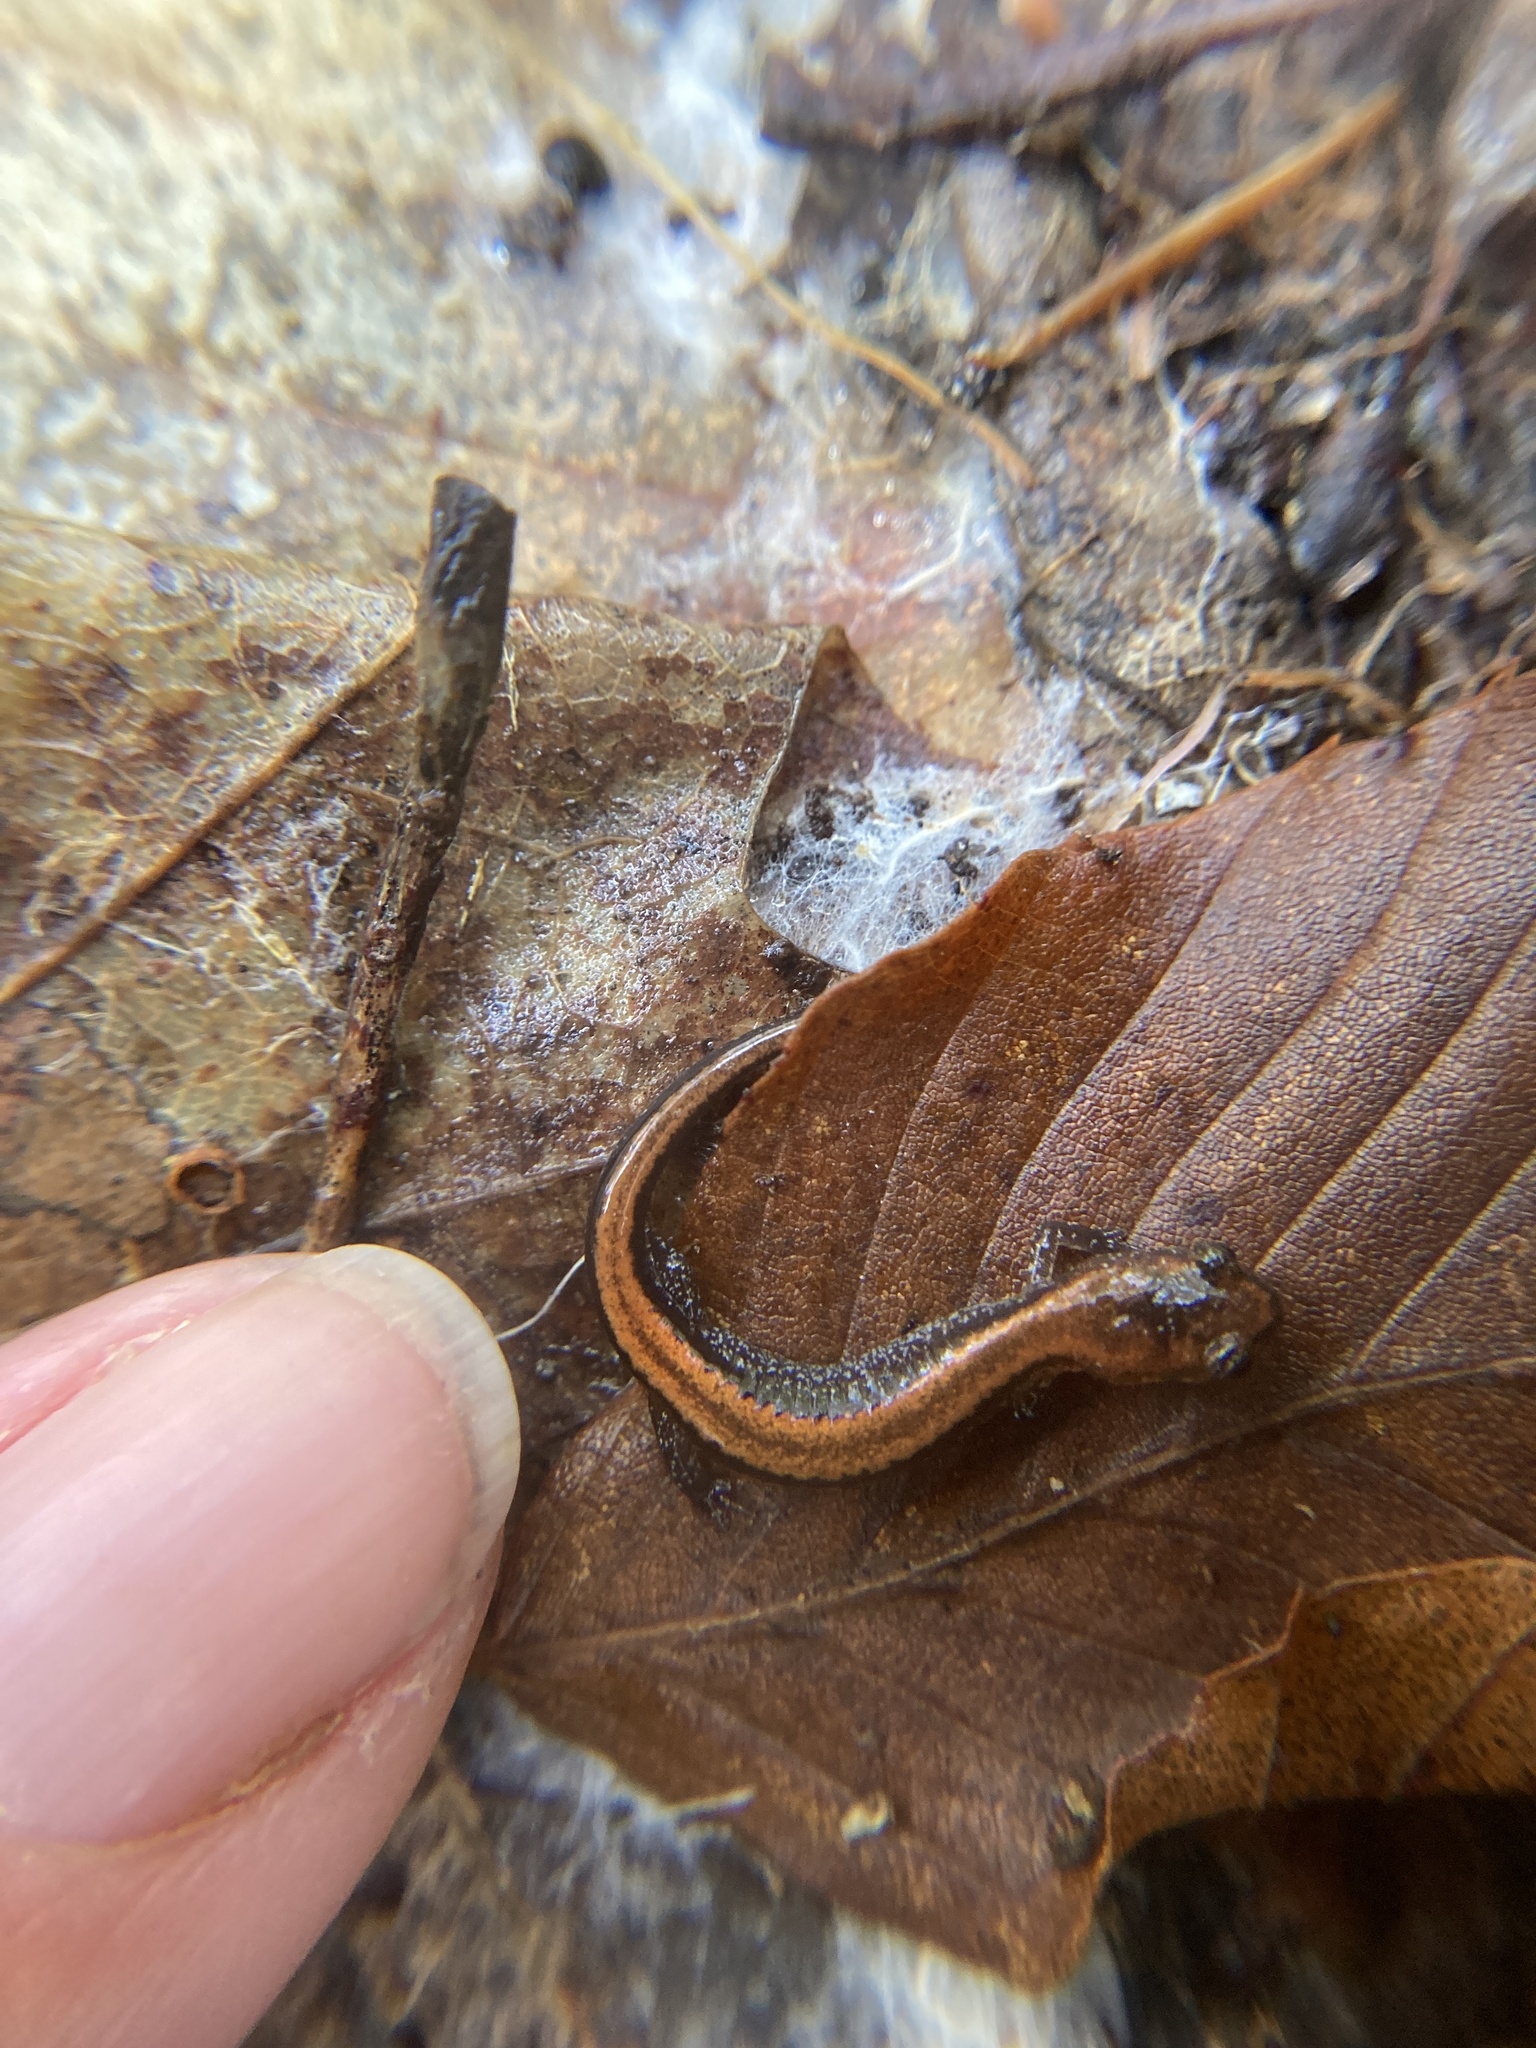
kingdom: Animalia
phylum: Chordata
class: Amphibia
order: Caudata
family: Plethodontidae
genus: Plethodon
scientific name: Plethodon cinereus
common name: Redback salamander
